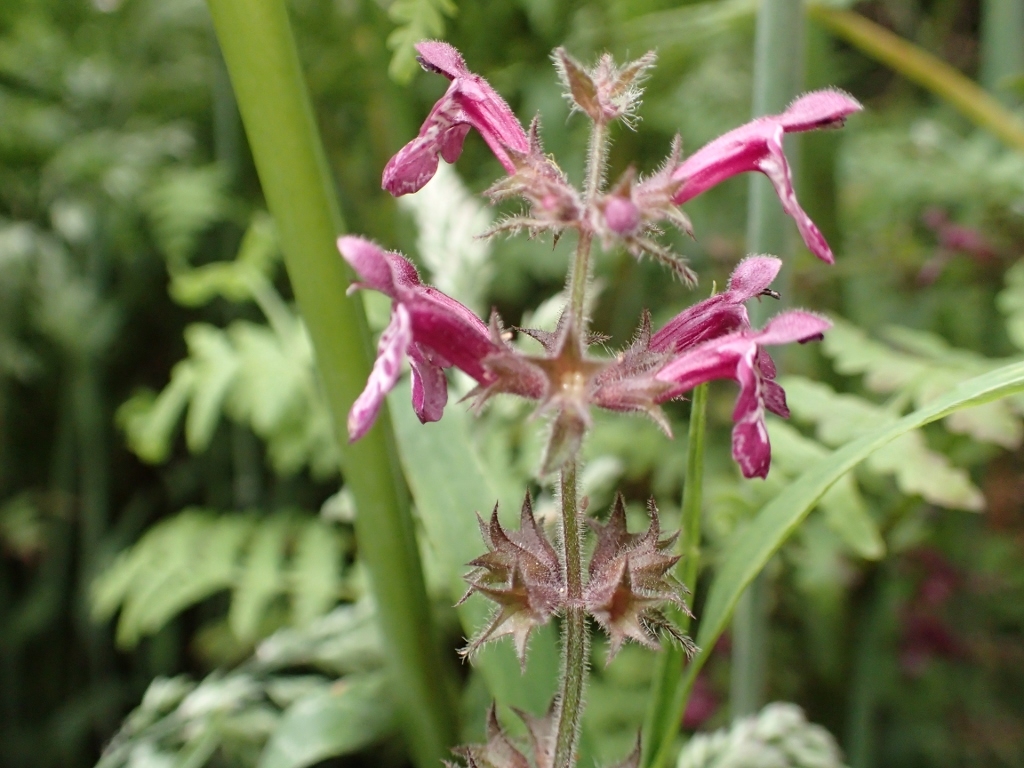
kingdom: Plantae
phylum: Tracheophyta
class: Magnoliopsida
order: Lamiales
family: Lamiaceae
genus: Stachys
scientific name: Stachys sylvatica
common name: Hedge woundwort
